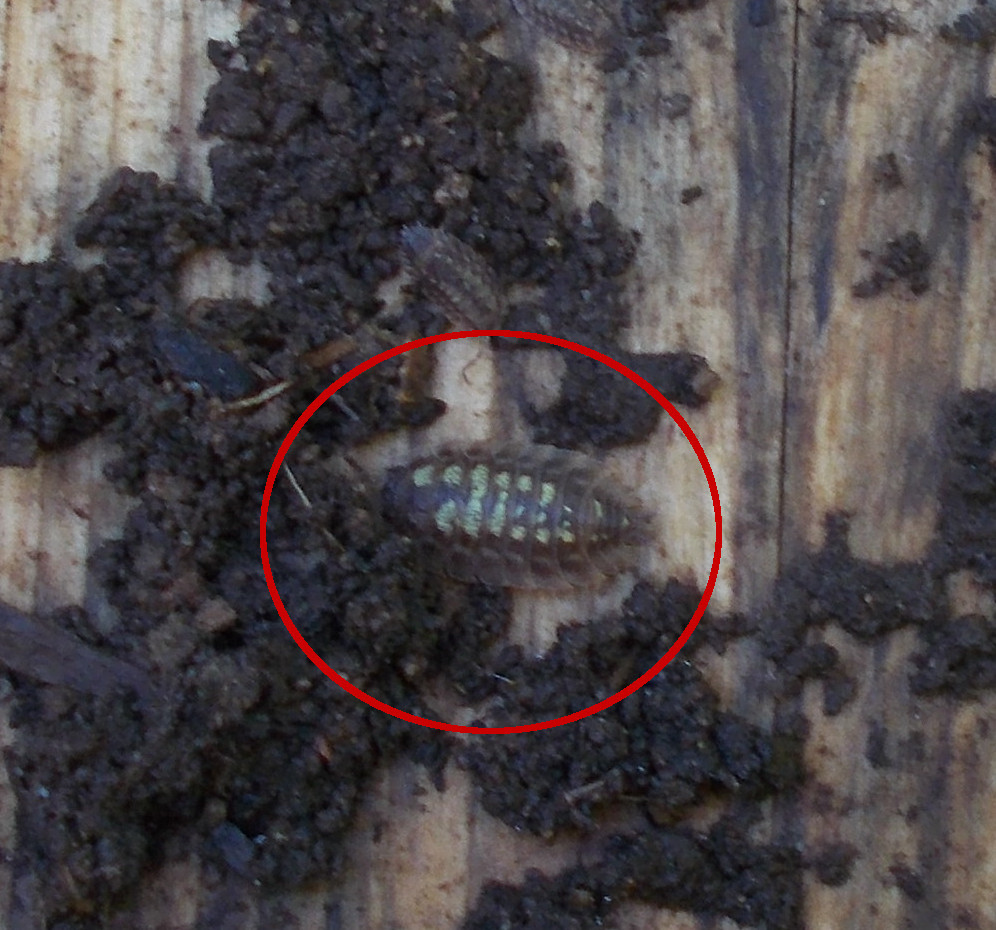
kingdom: Animalia
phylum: Arthropoda
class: Malacostraca
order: Isopoda
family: Oniscidae
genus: Oniscus
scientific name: Oniscus asellus
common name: Common shiny woodlouse
